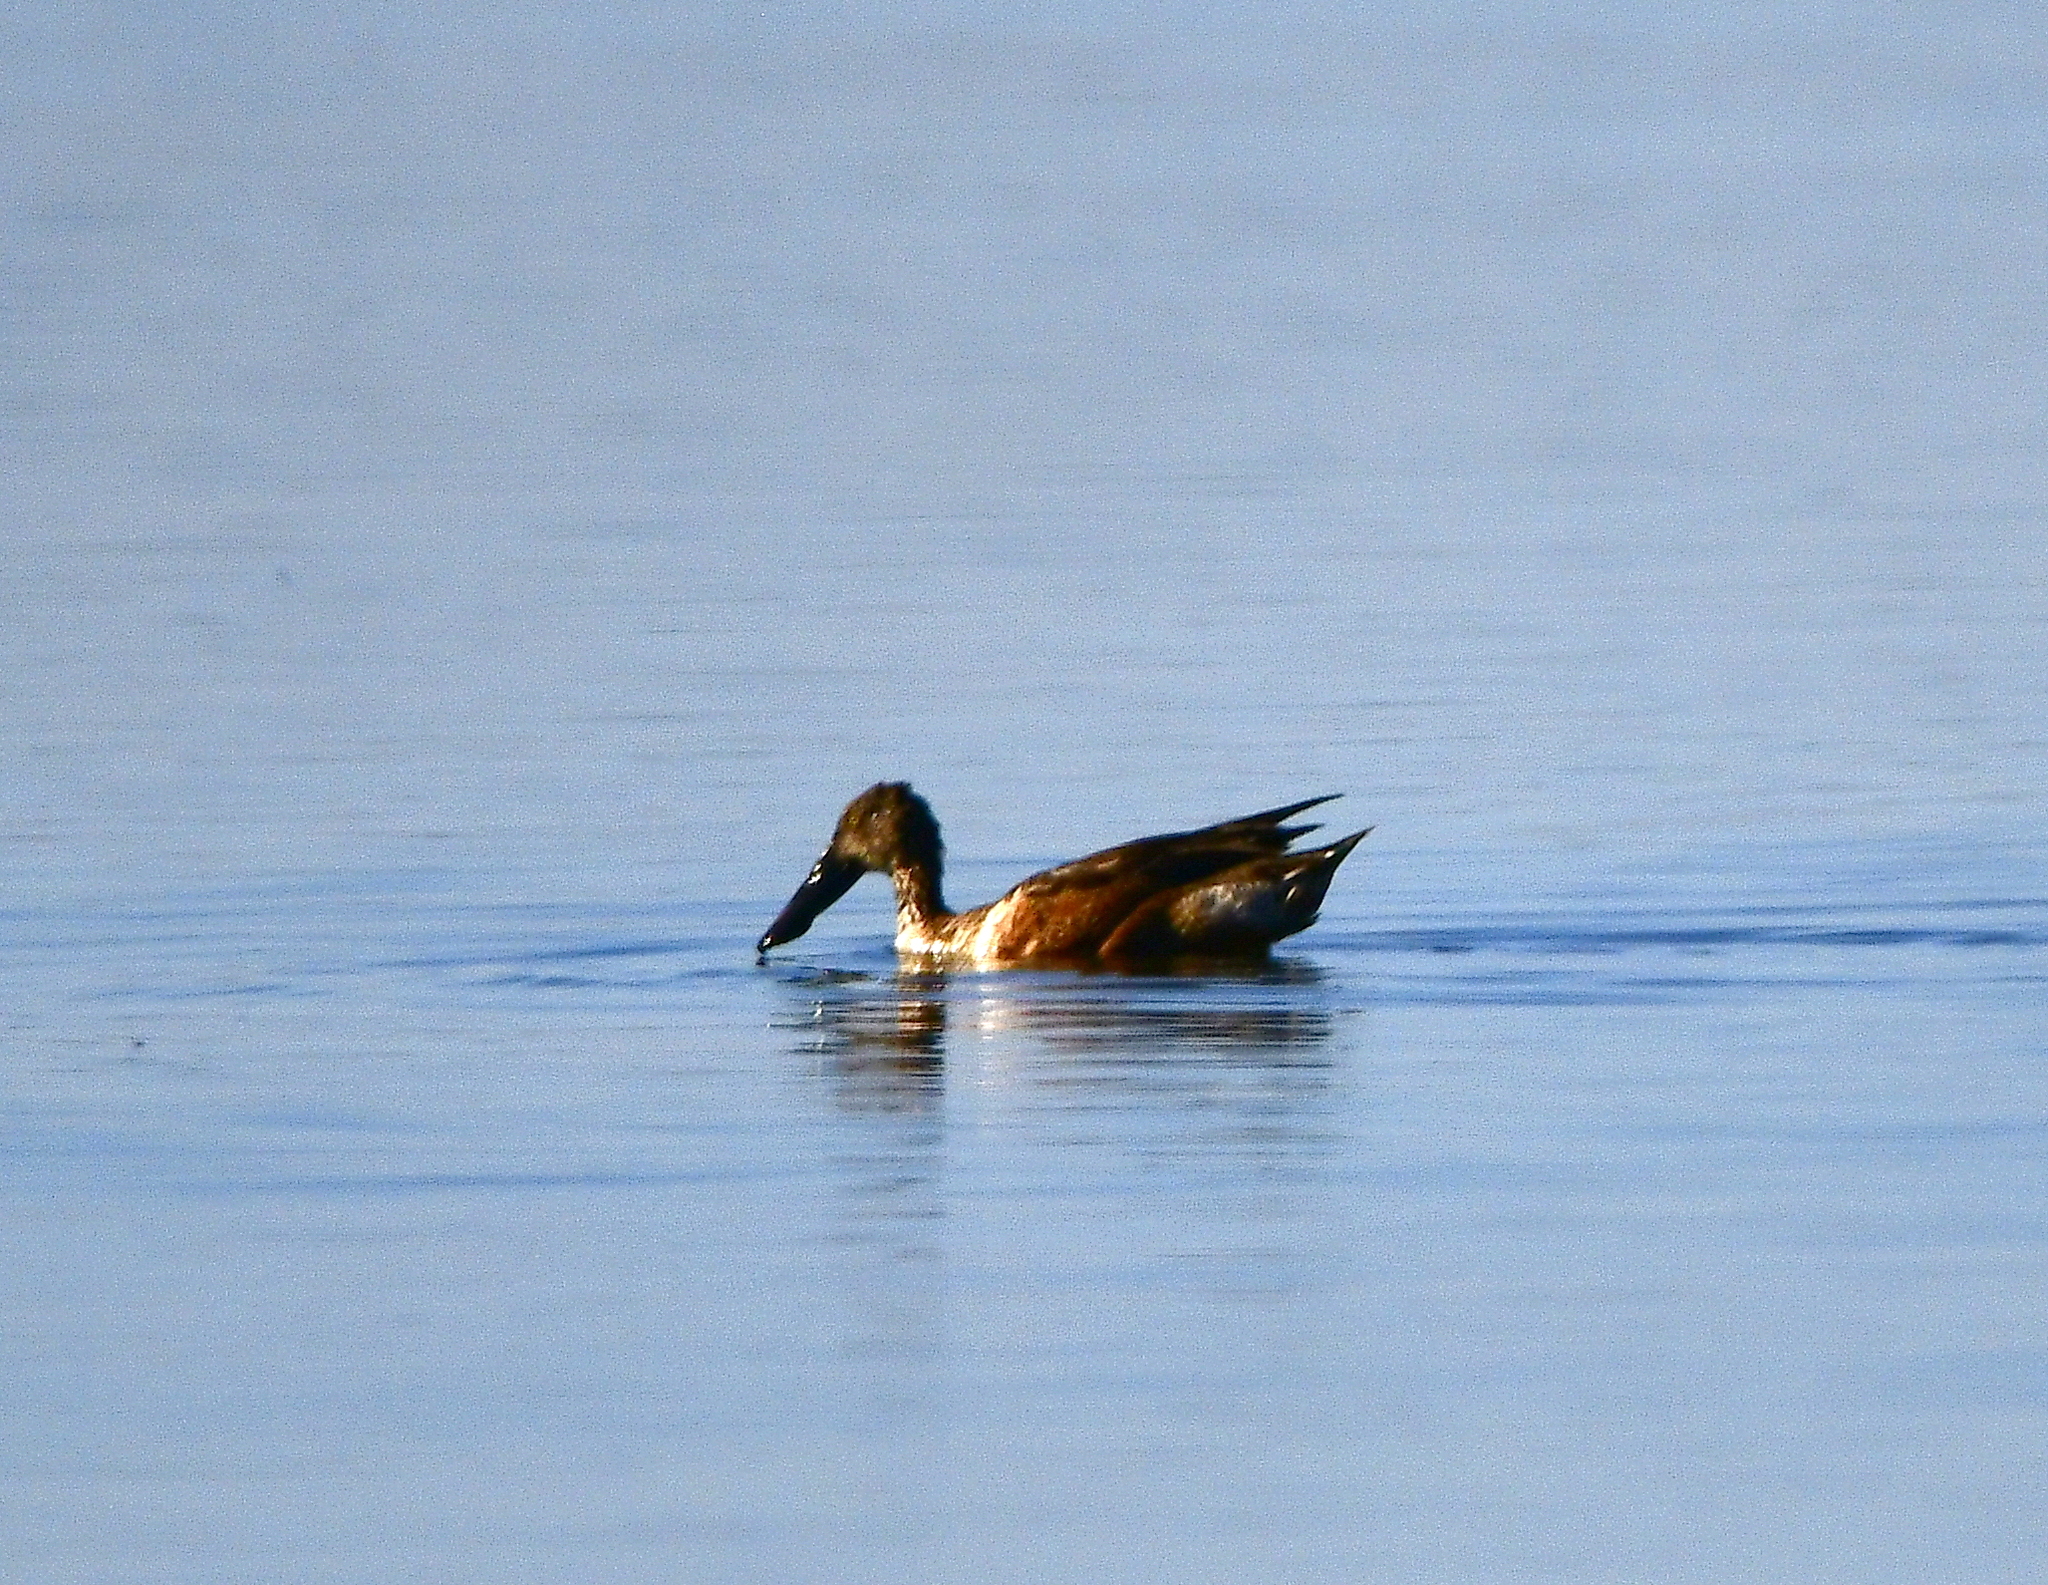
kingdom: Animalia
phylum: Chordata
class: Aves
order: Anseriformes
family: Anatidae
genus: Spatula
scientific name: Spatula clypeata
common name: Northern shoveler
